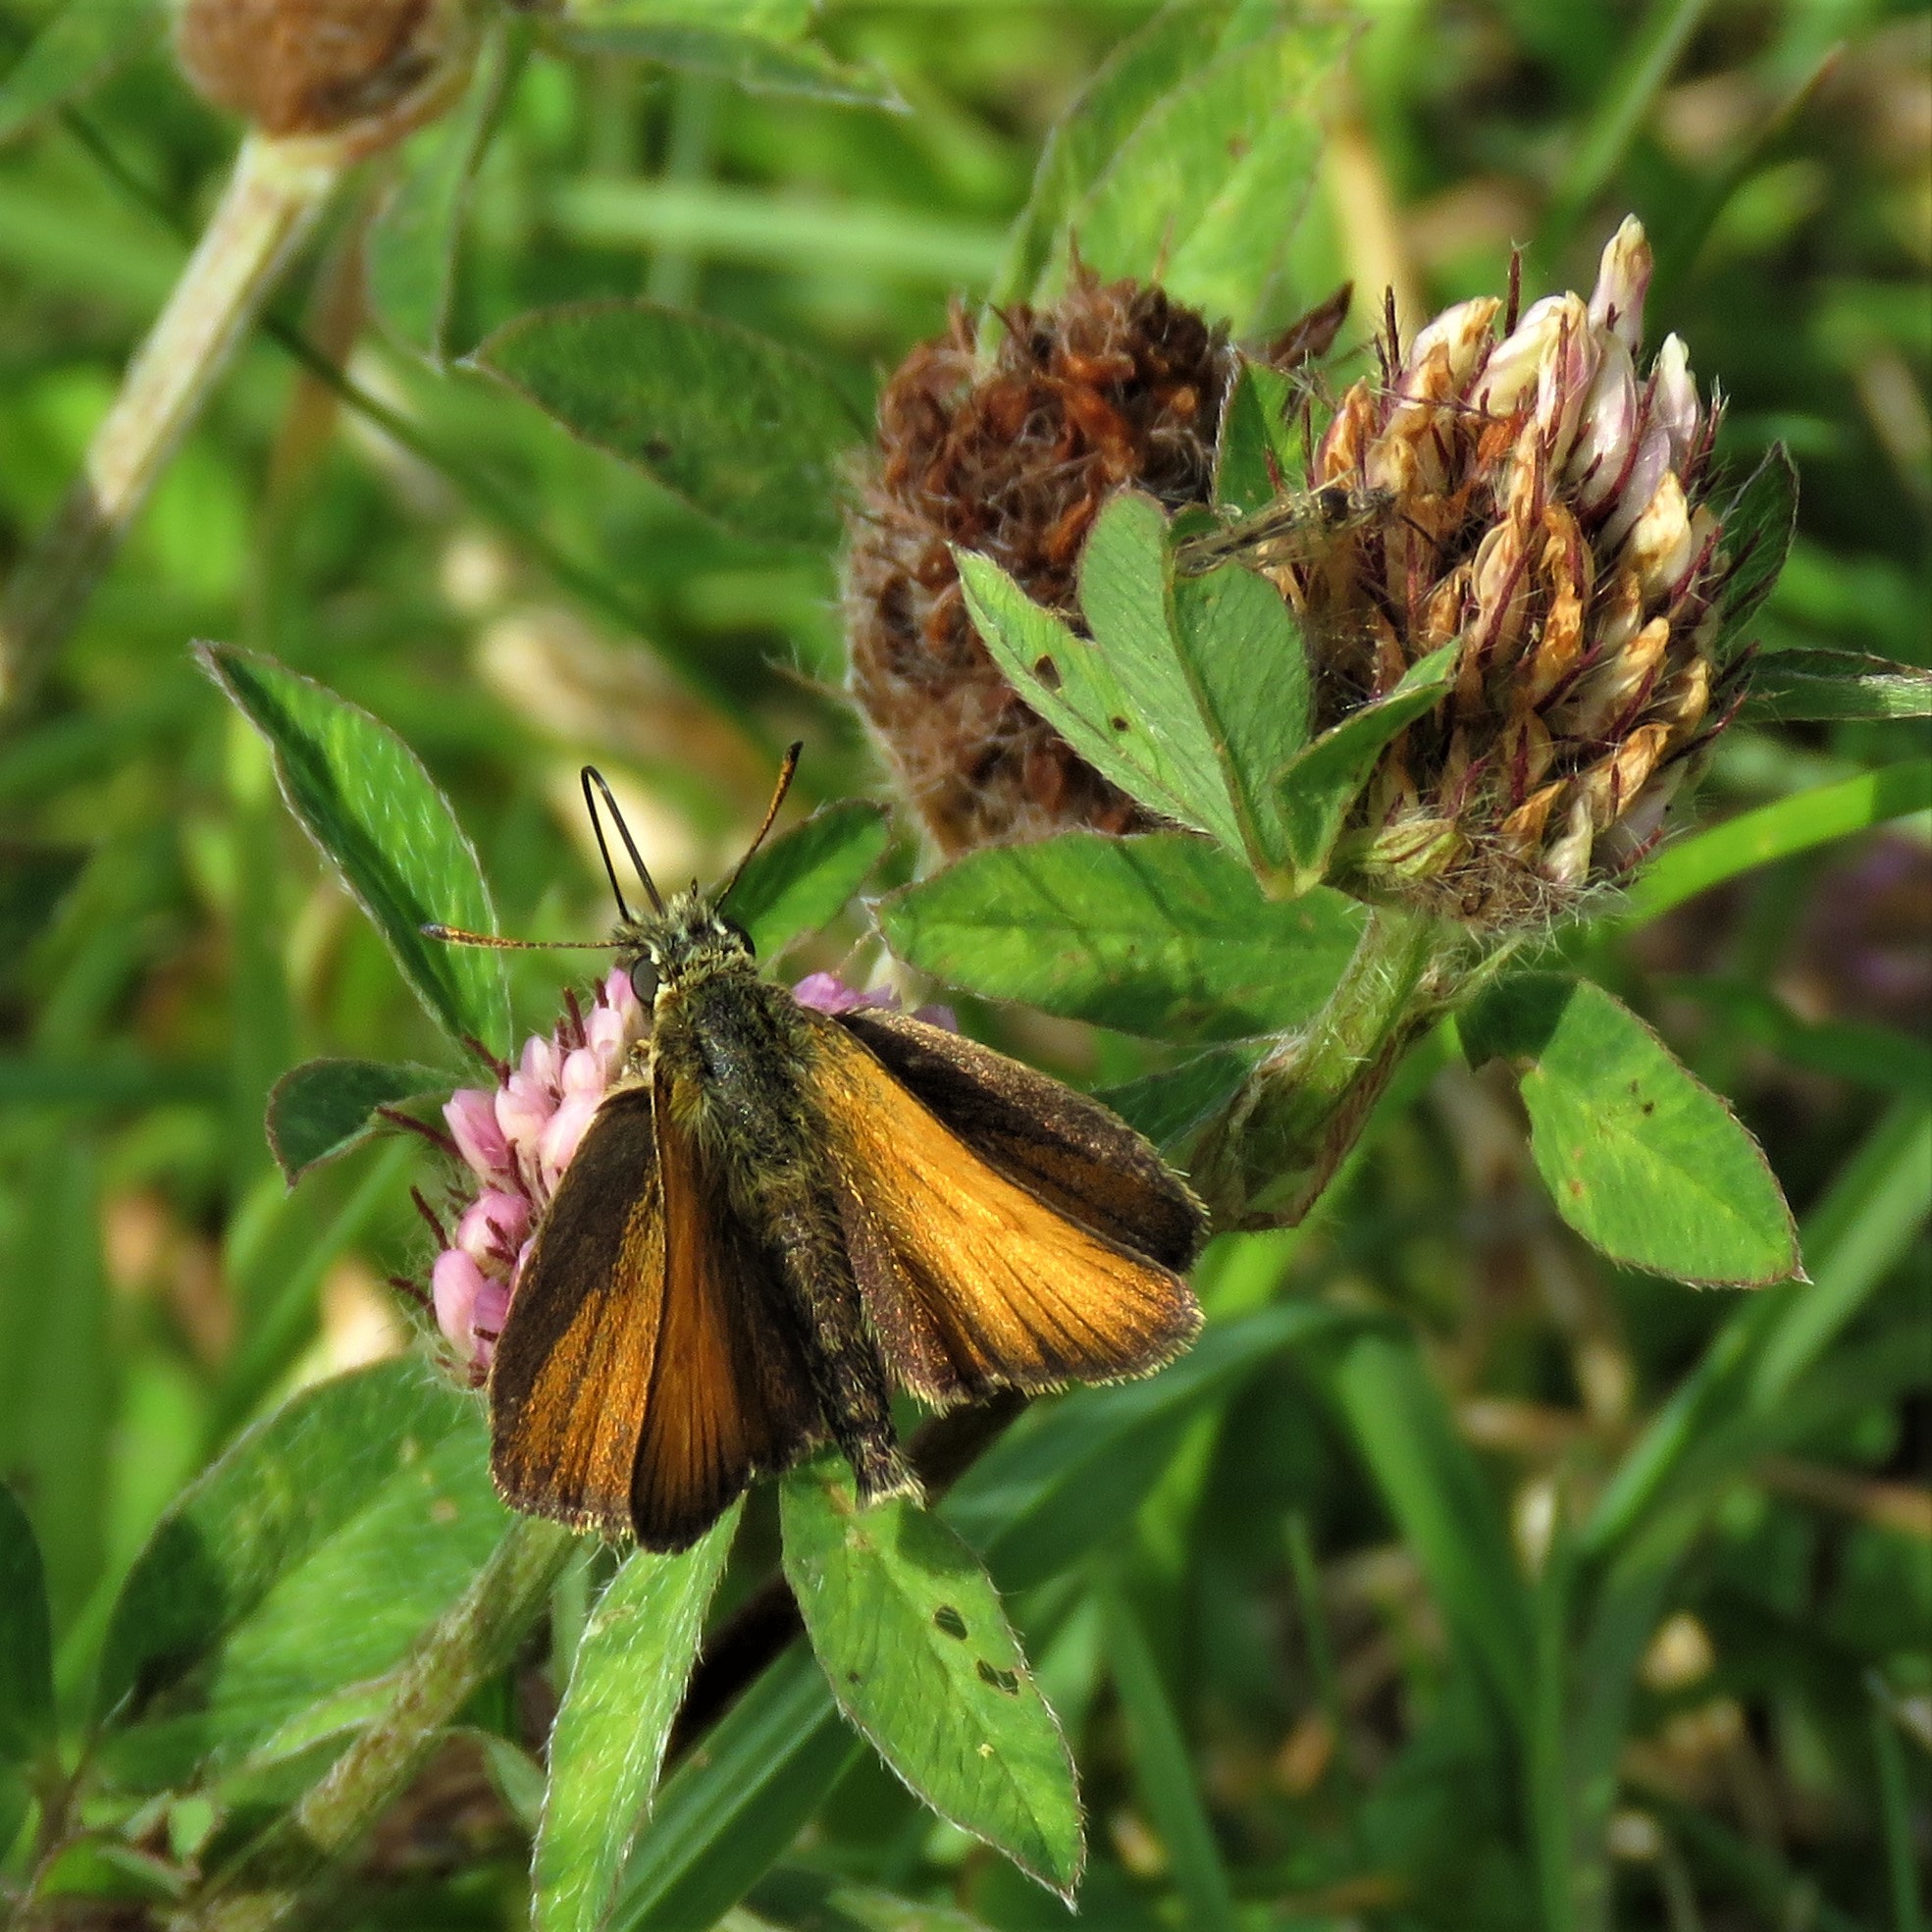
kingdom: Animalia
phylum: Arthropoda
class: Insecta
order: Lepidoptera
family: Hesperiidae
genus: Thymelicus
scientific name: Thymelicus lineola
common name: Essex skipper
